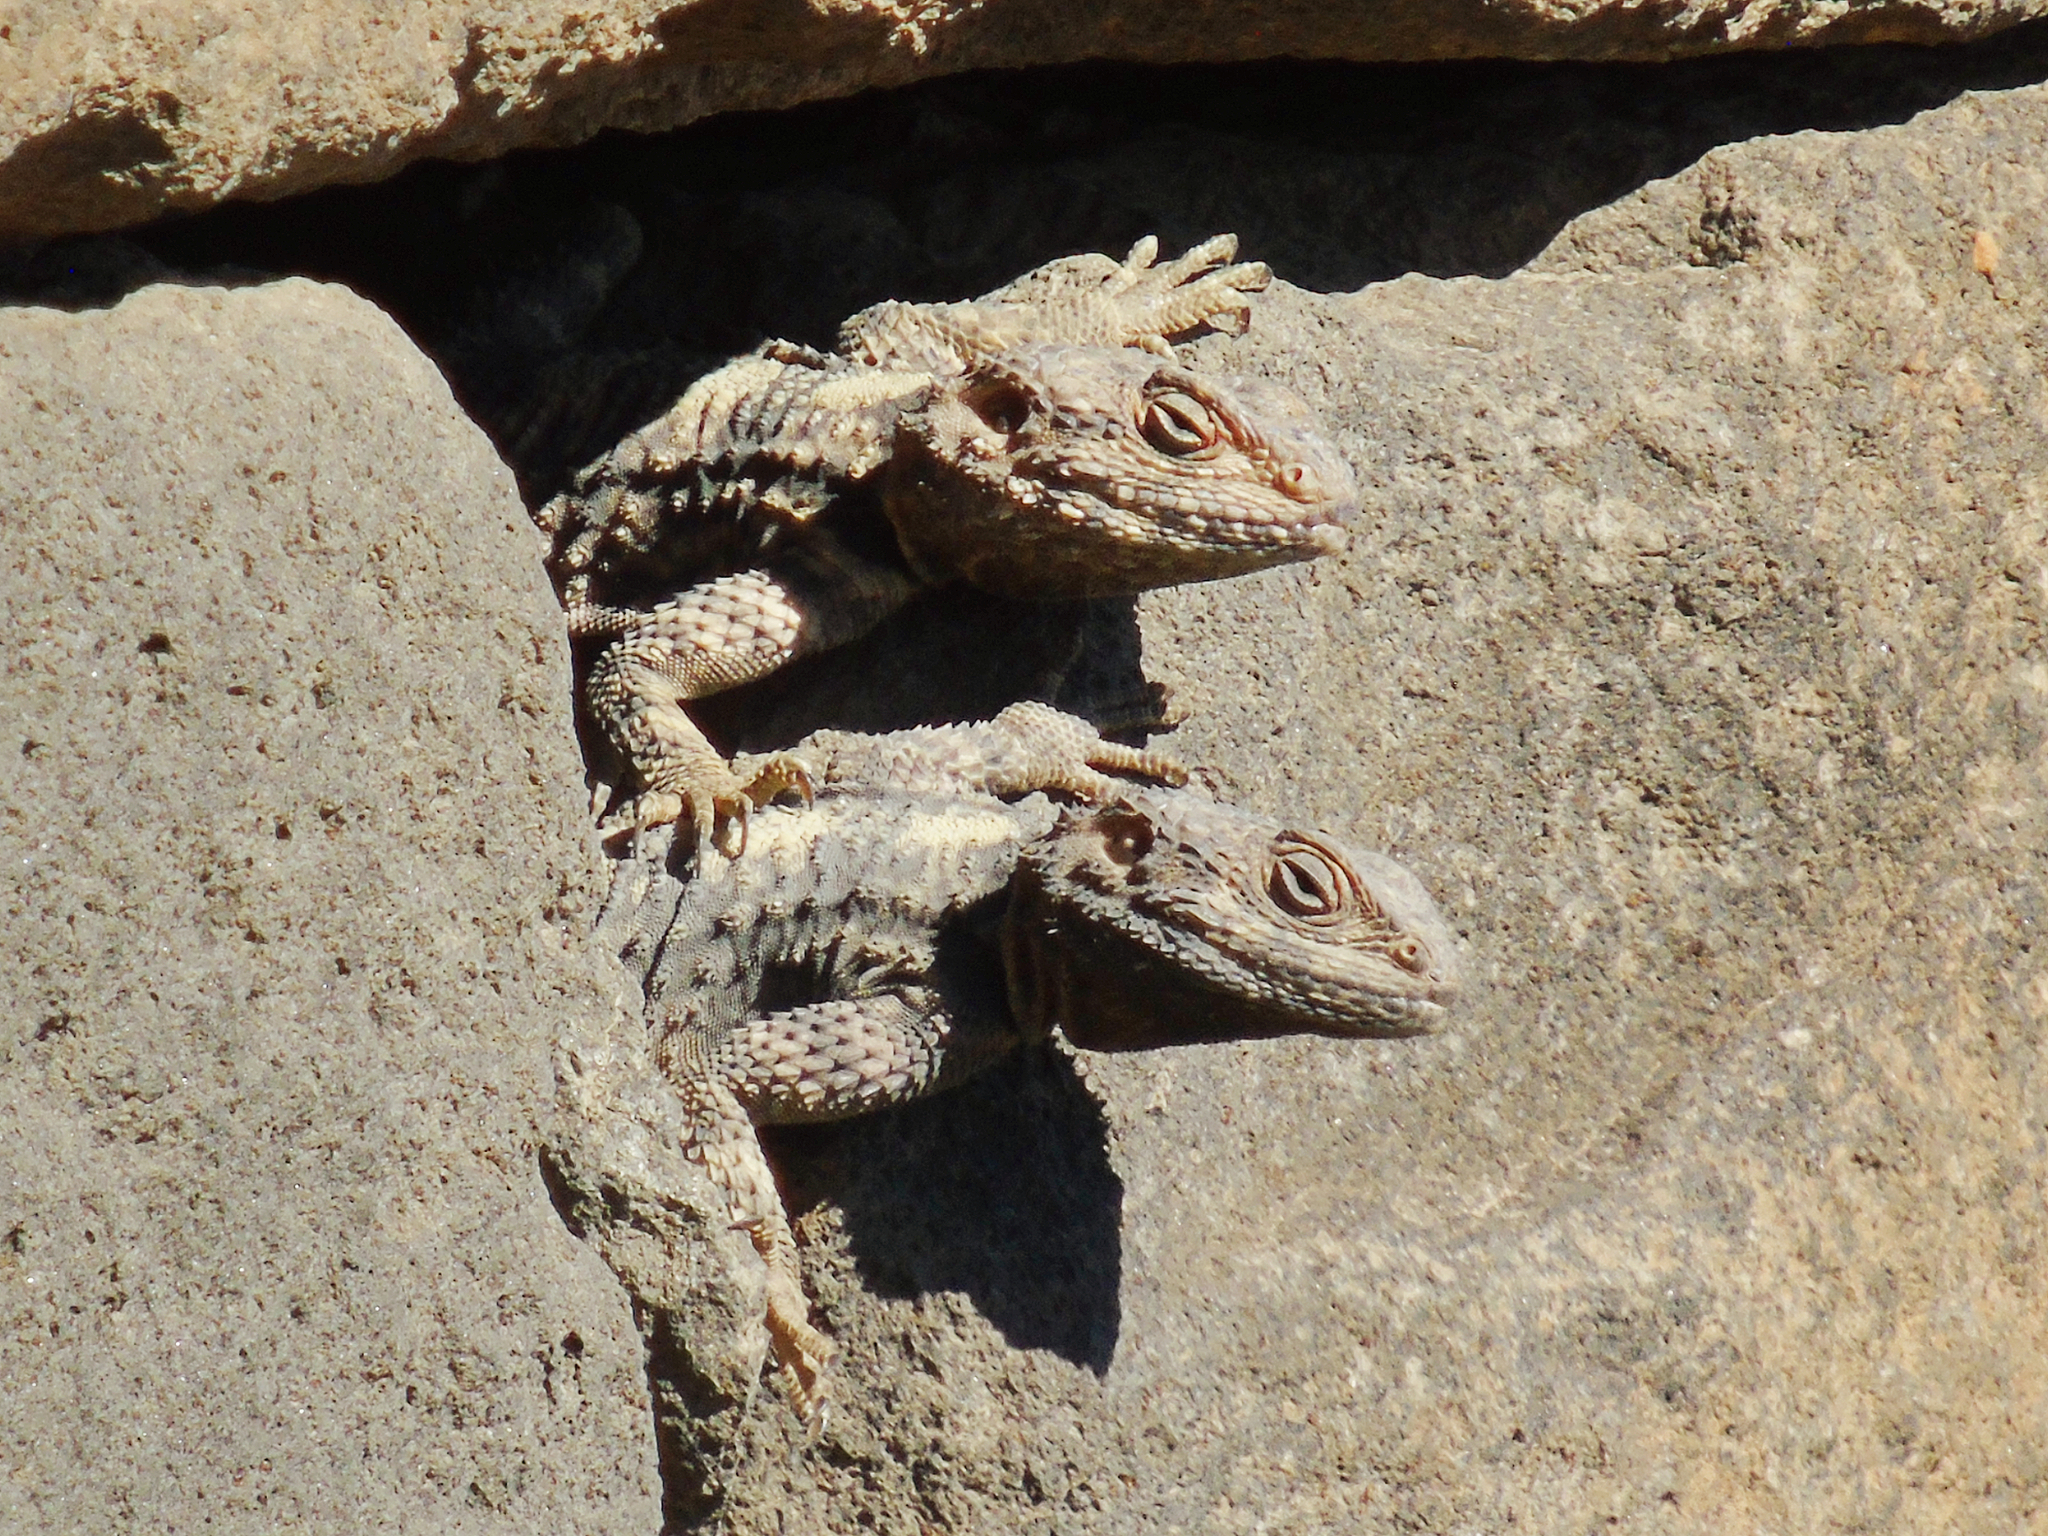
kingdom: Animalia
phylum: Chordata
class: Squamata
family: Agamidae
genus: Stellagama
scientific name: Stellagama stellio
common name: Starred agama
